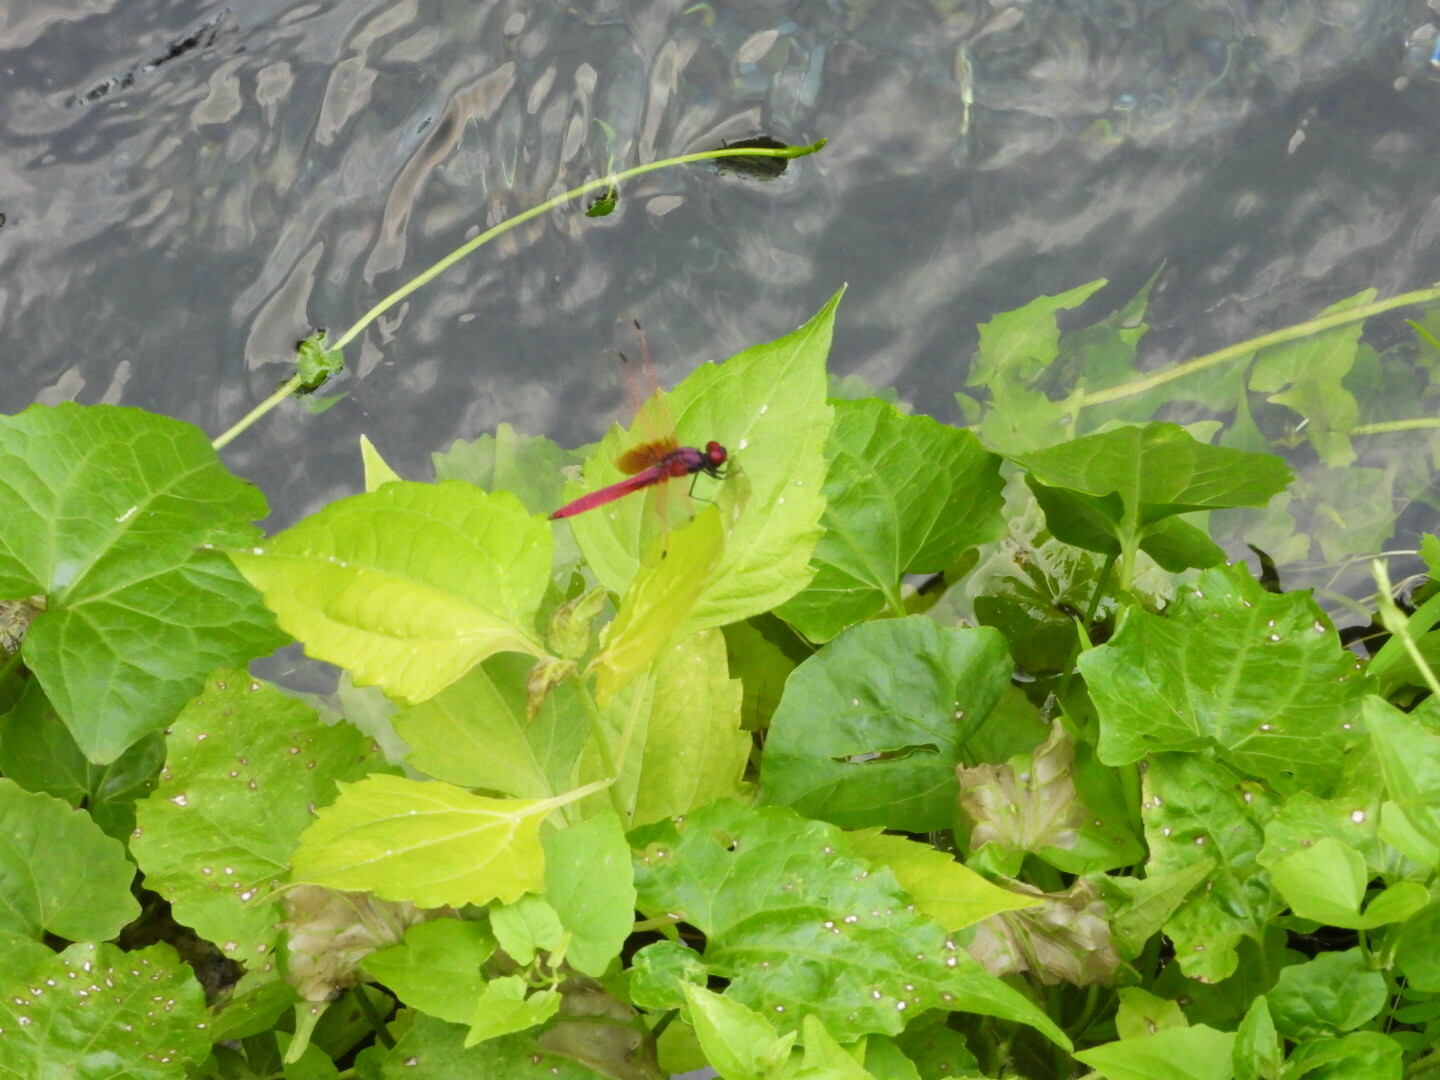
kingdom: Animalia
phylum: Arthropoda
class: Insecta
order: Odonata
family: Libellulidae
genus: Trithemis
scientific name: Trithemis aurora
